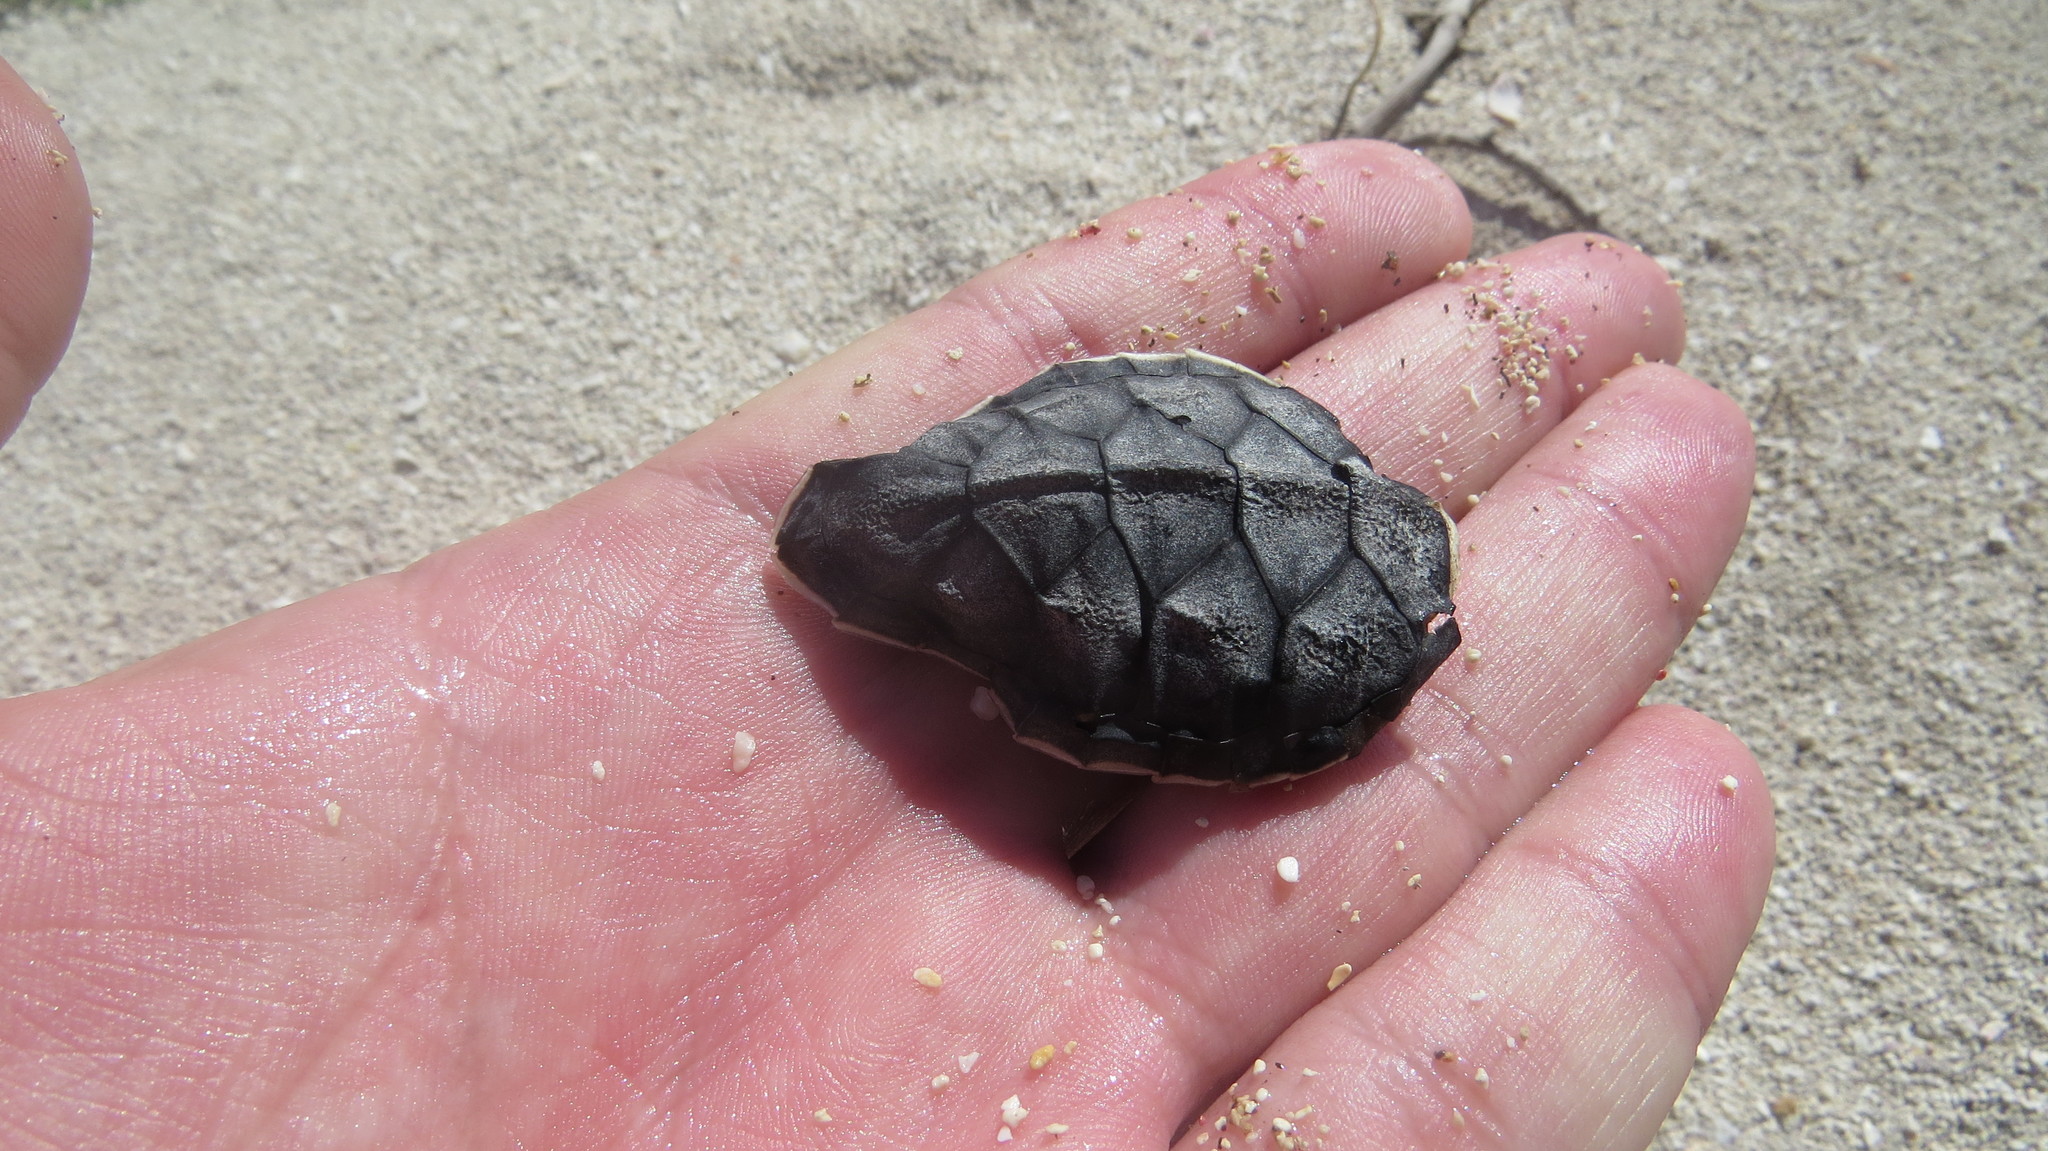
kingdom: Animalia
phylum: Chordata
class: Testudines
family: Cheloniidae
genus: Chelonia
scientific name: Chelonia mydas
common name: Green turtle
